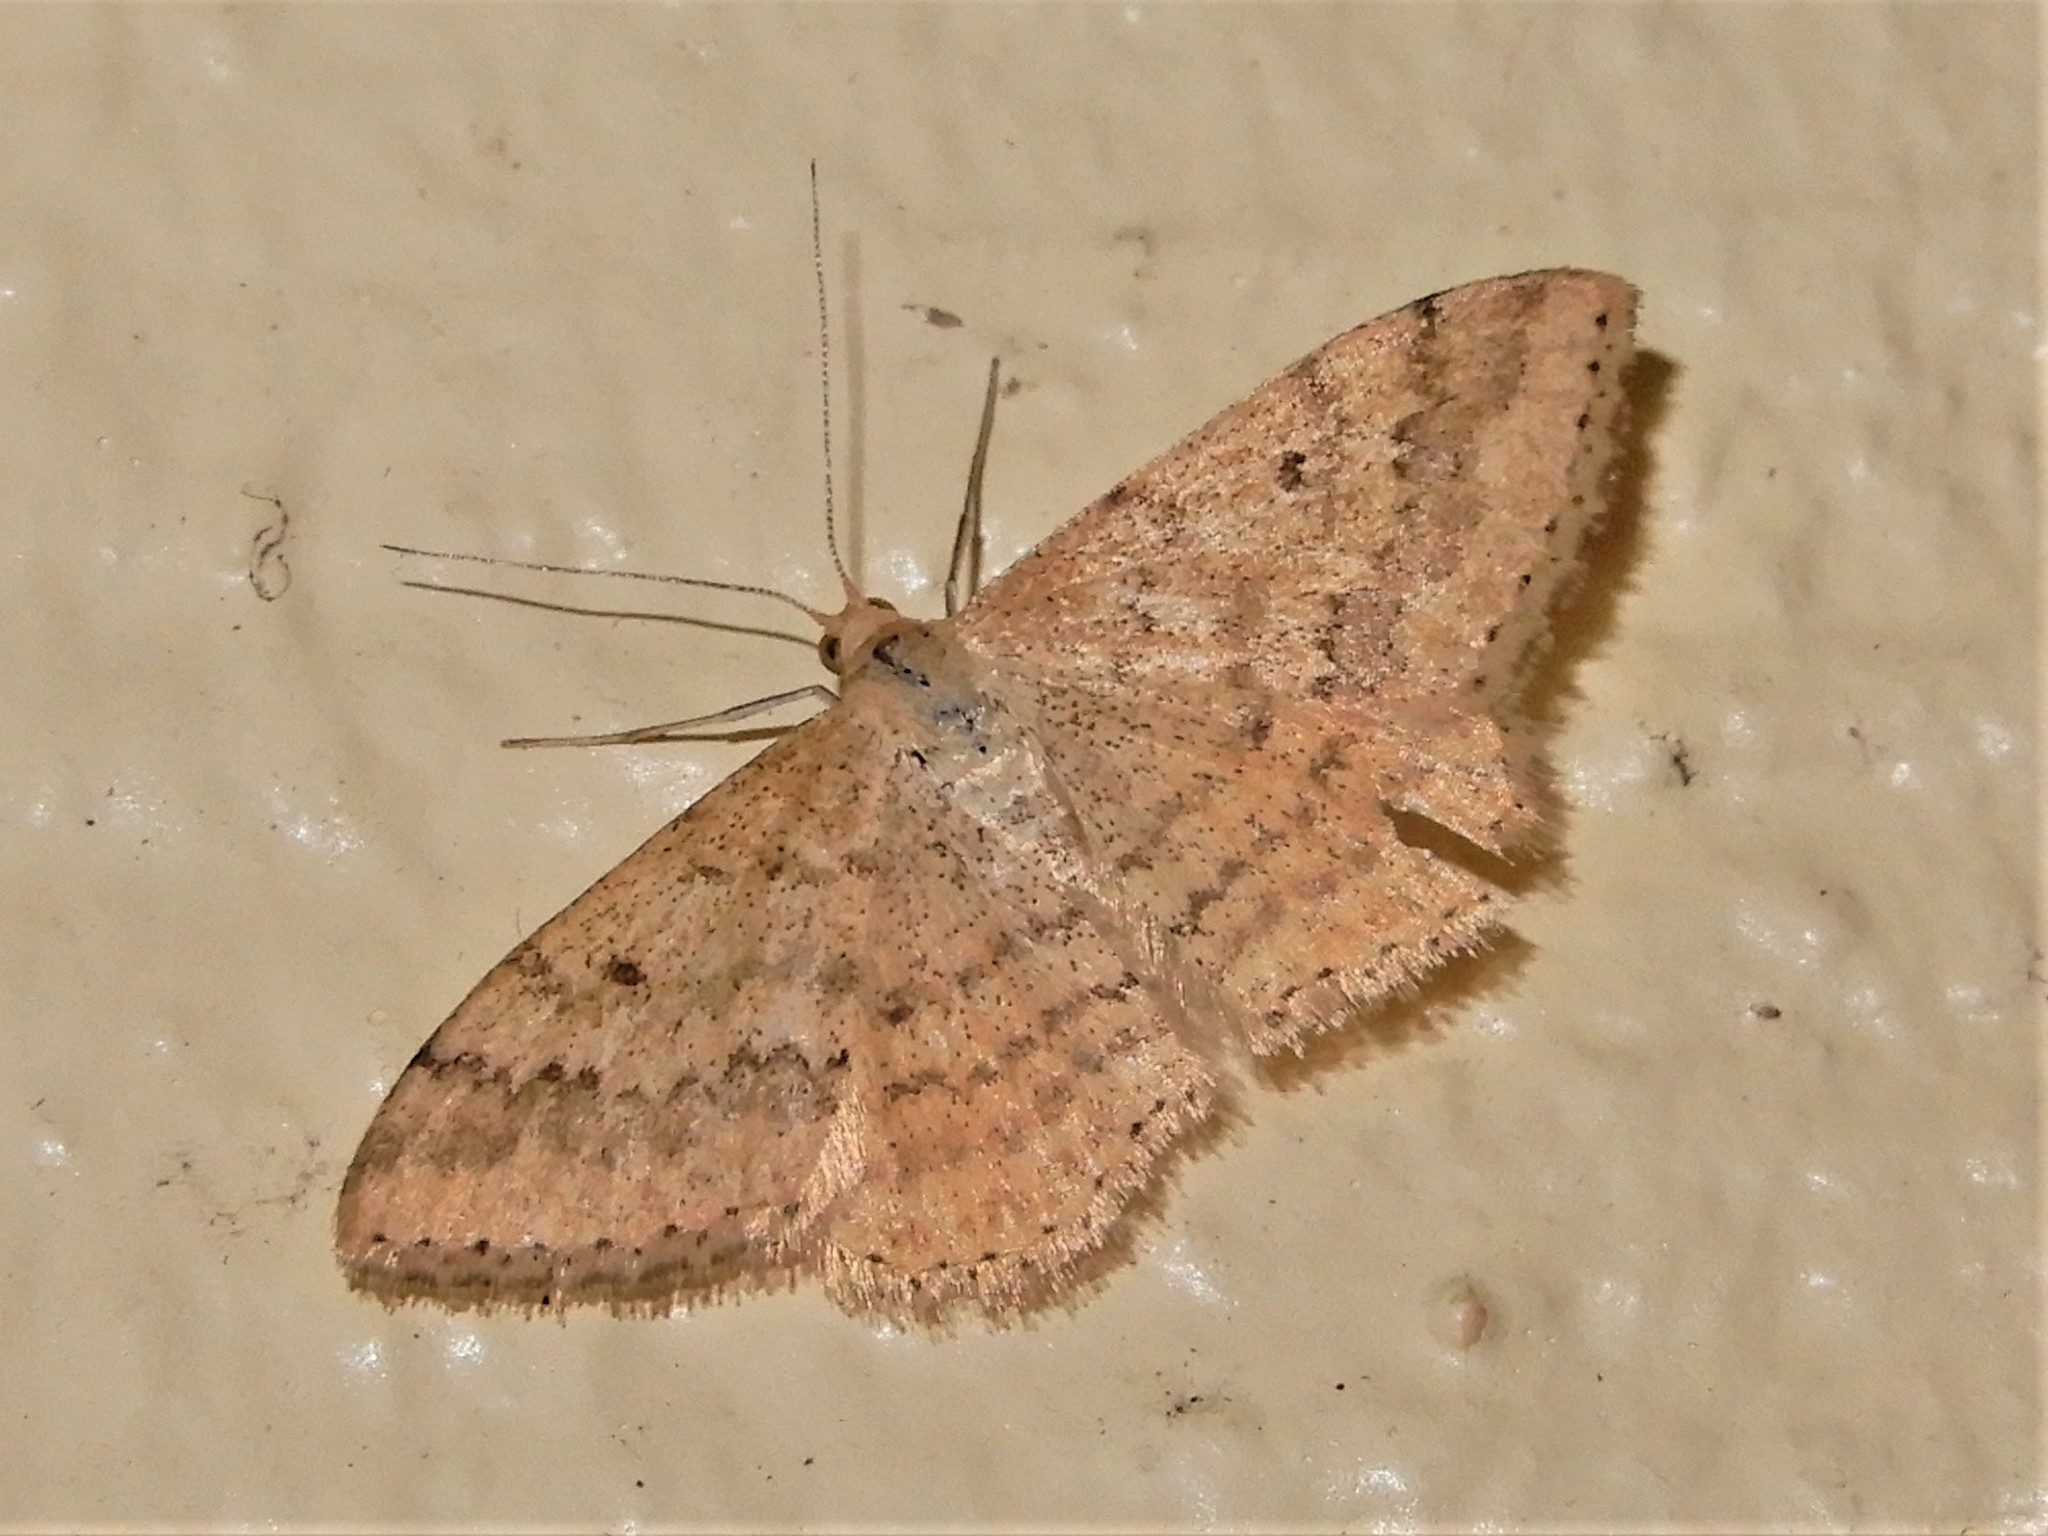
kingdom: Animalia
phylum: Arthropoda
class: Insecta
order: Lepidoptera
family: Geometridae
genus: Scopula
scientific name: Scopula rubraria
